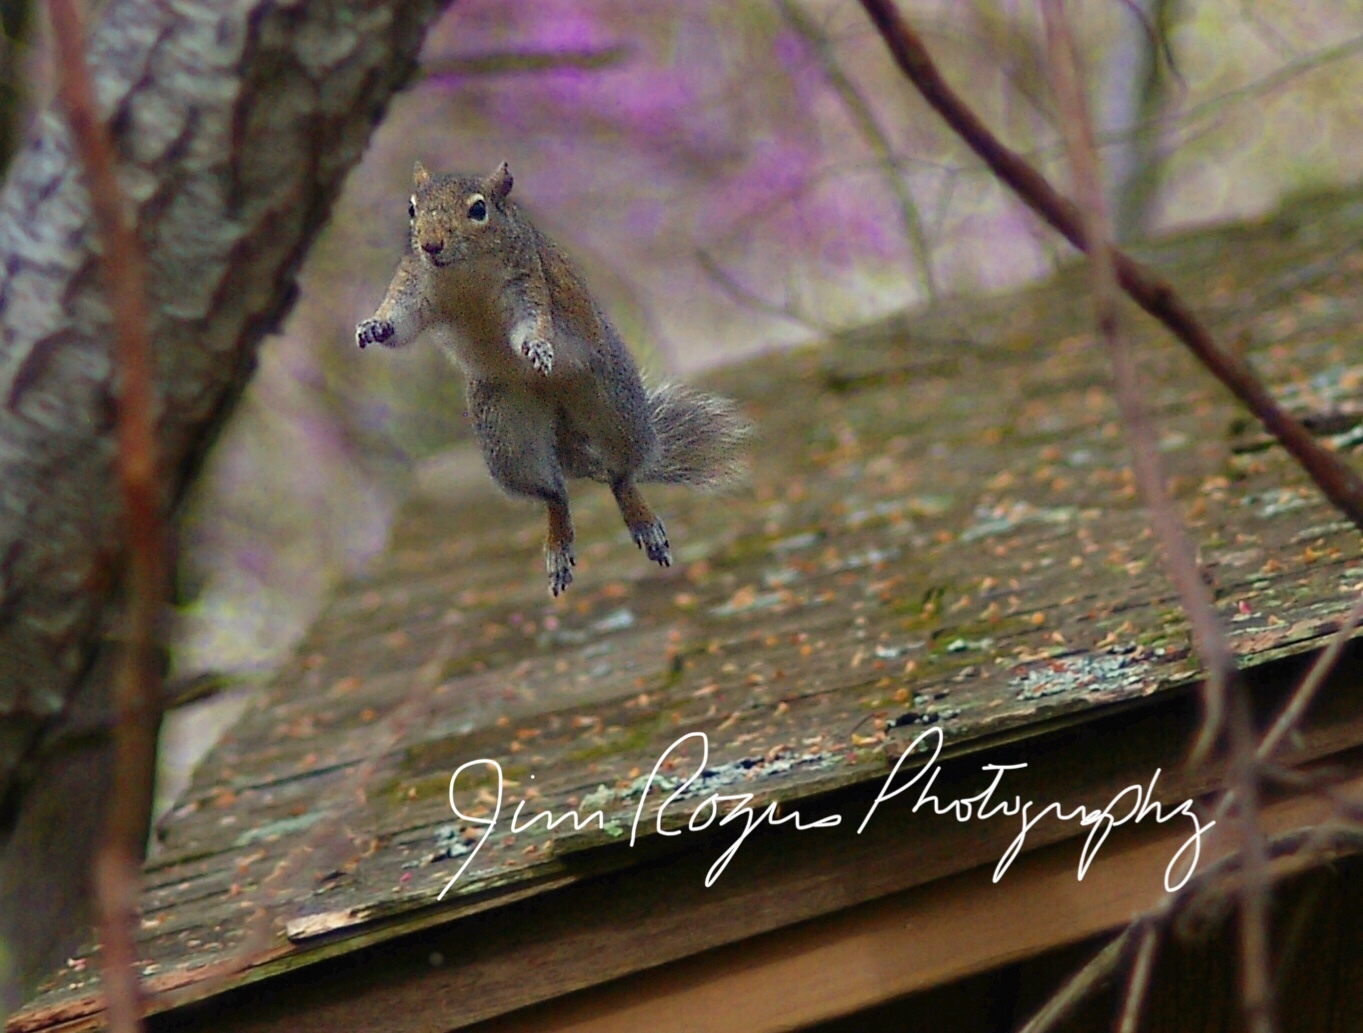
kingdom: Animalia
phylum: Chordata
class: Mammalia
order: Rodentia
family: Sciuridae
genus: Sciurus
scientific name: Sciurus carolinensis
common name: Eastern gray squirrel
